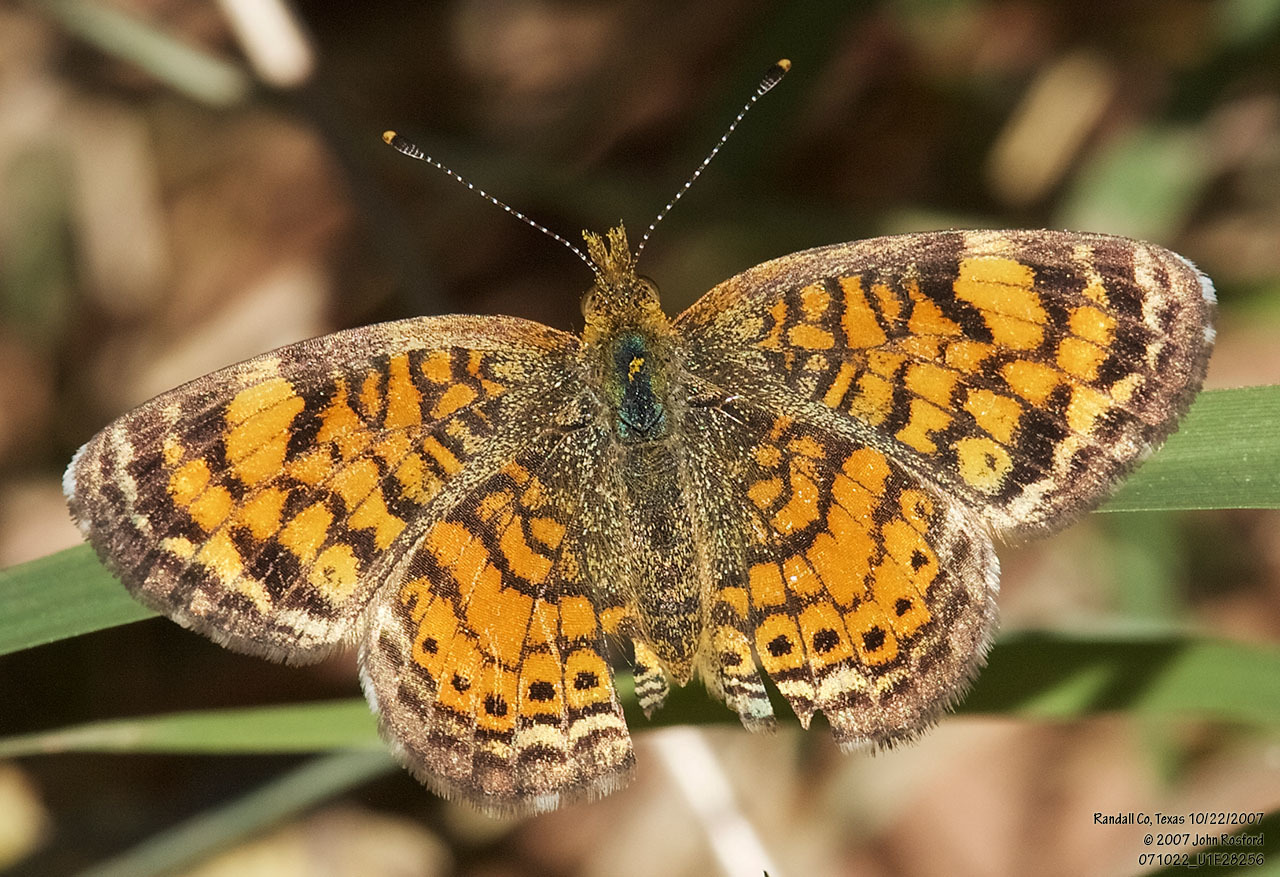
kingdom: Animalia
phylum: Arthropoda
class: Insecta
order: Lepidoptera
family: Nymphalidae
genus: Phyciodes
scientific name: Phyciodes tharos
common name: Pearl crescent
